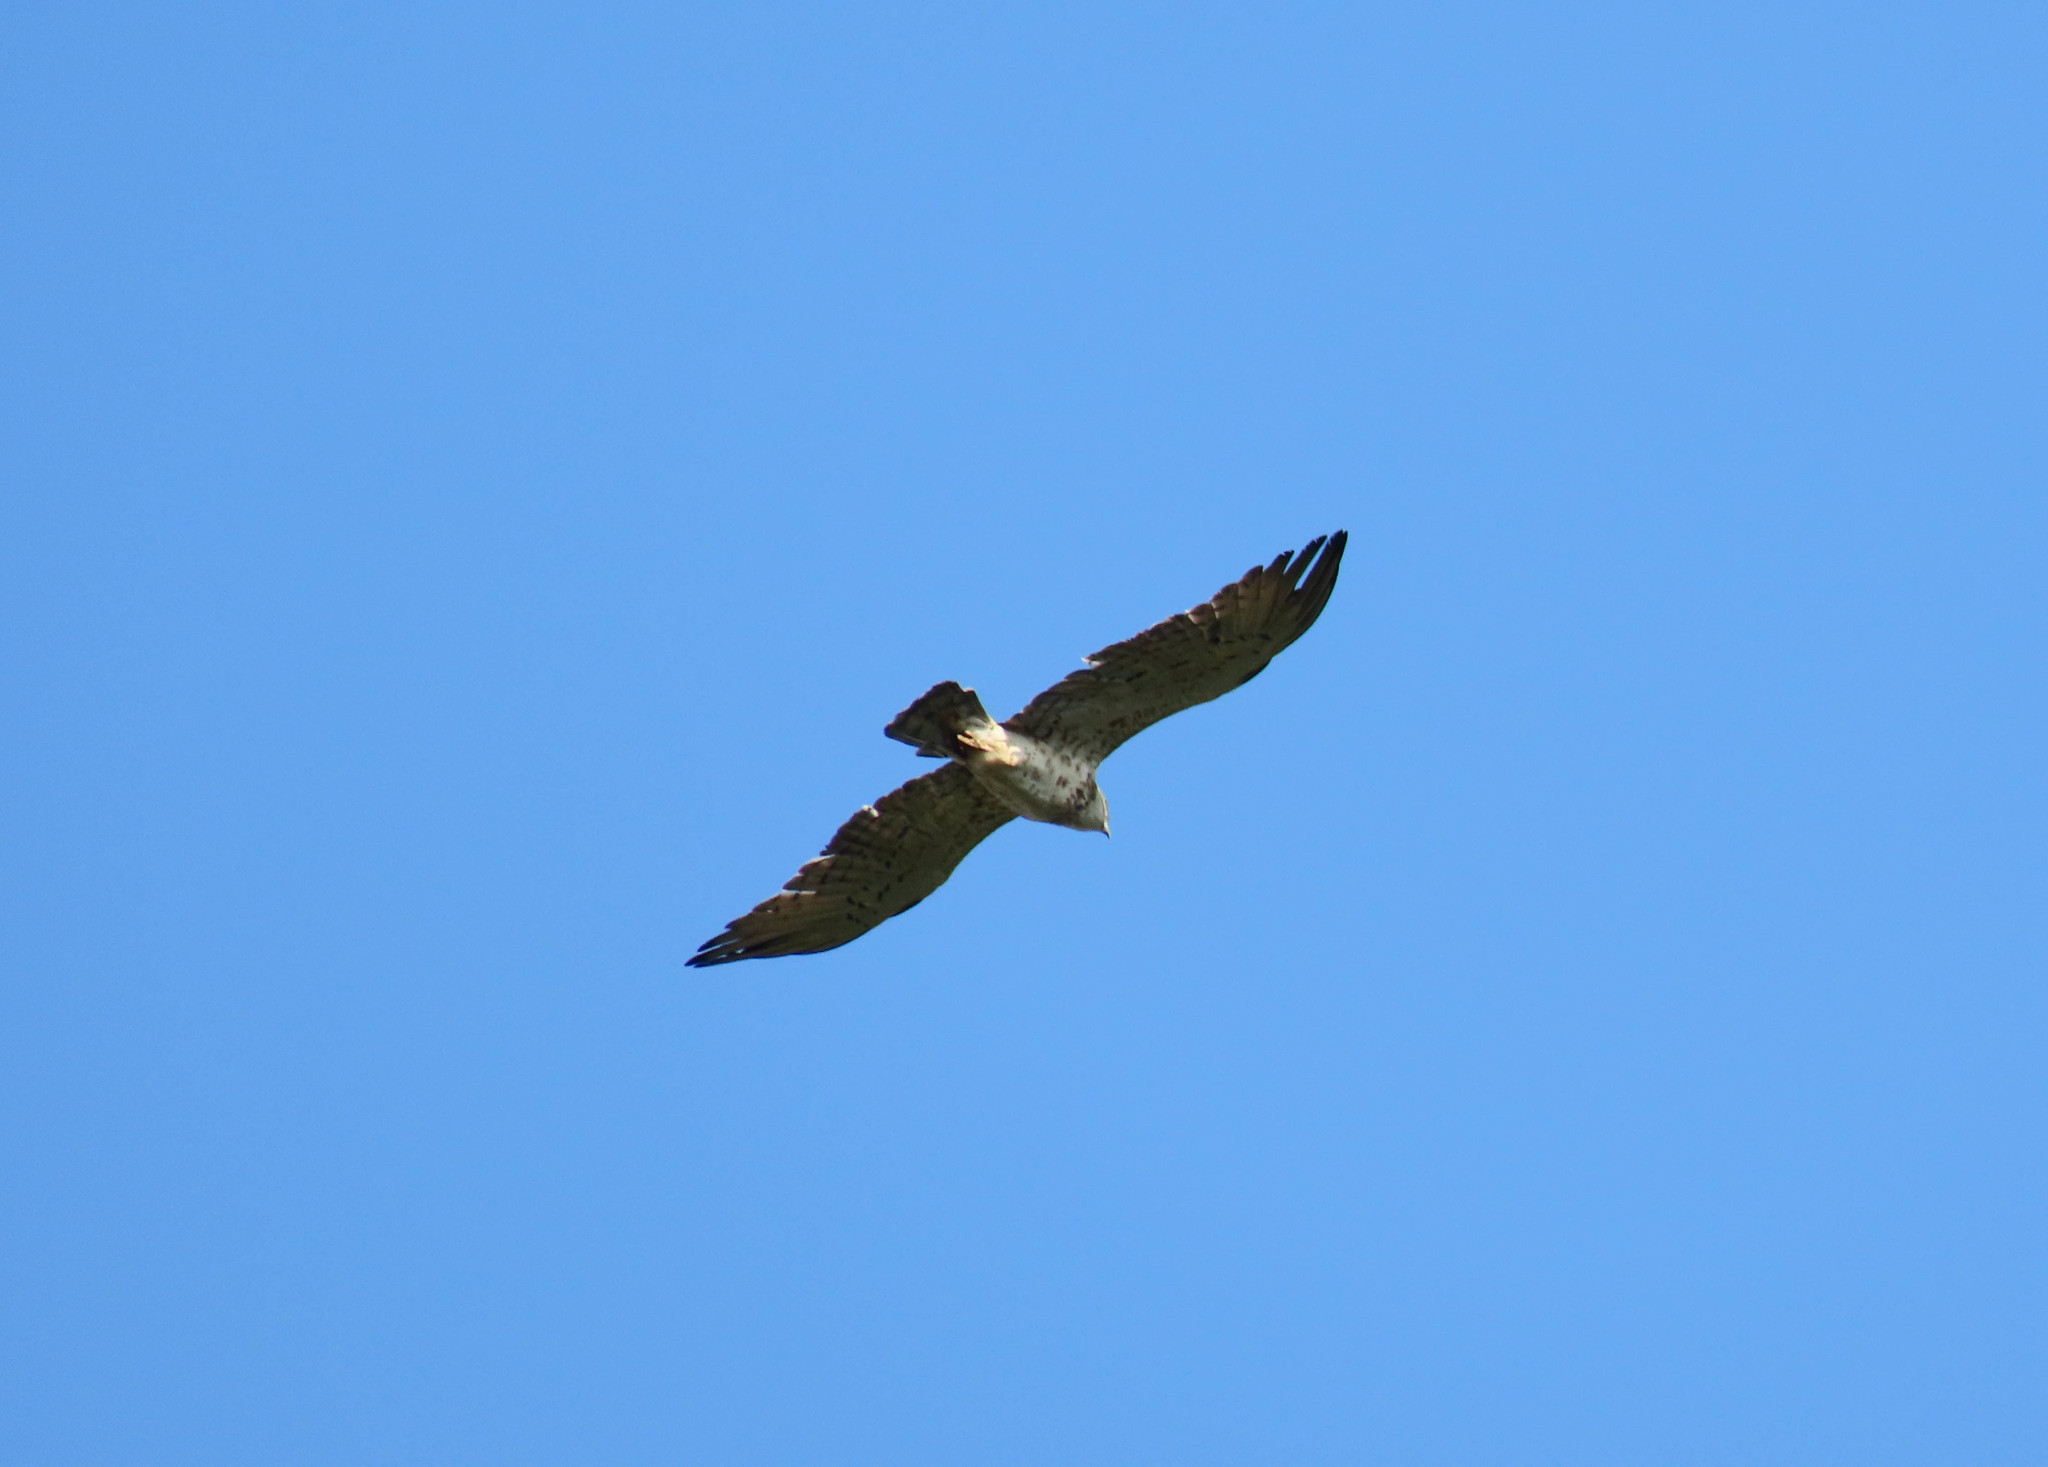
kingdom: Animalia
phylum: Chordata
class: Aves
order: Accipitriformes
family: Accipitridae
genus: Circaetus
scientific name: Circaetus gallicus
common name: Short-toed snake eagle
